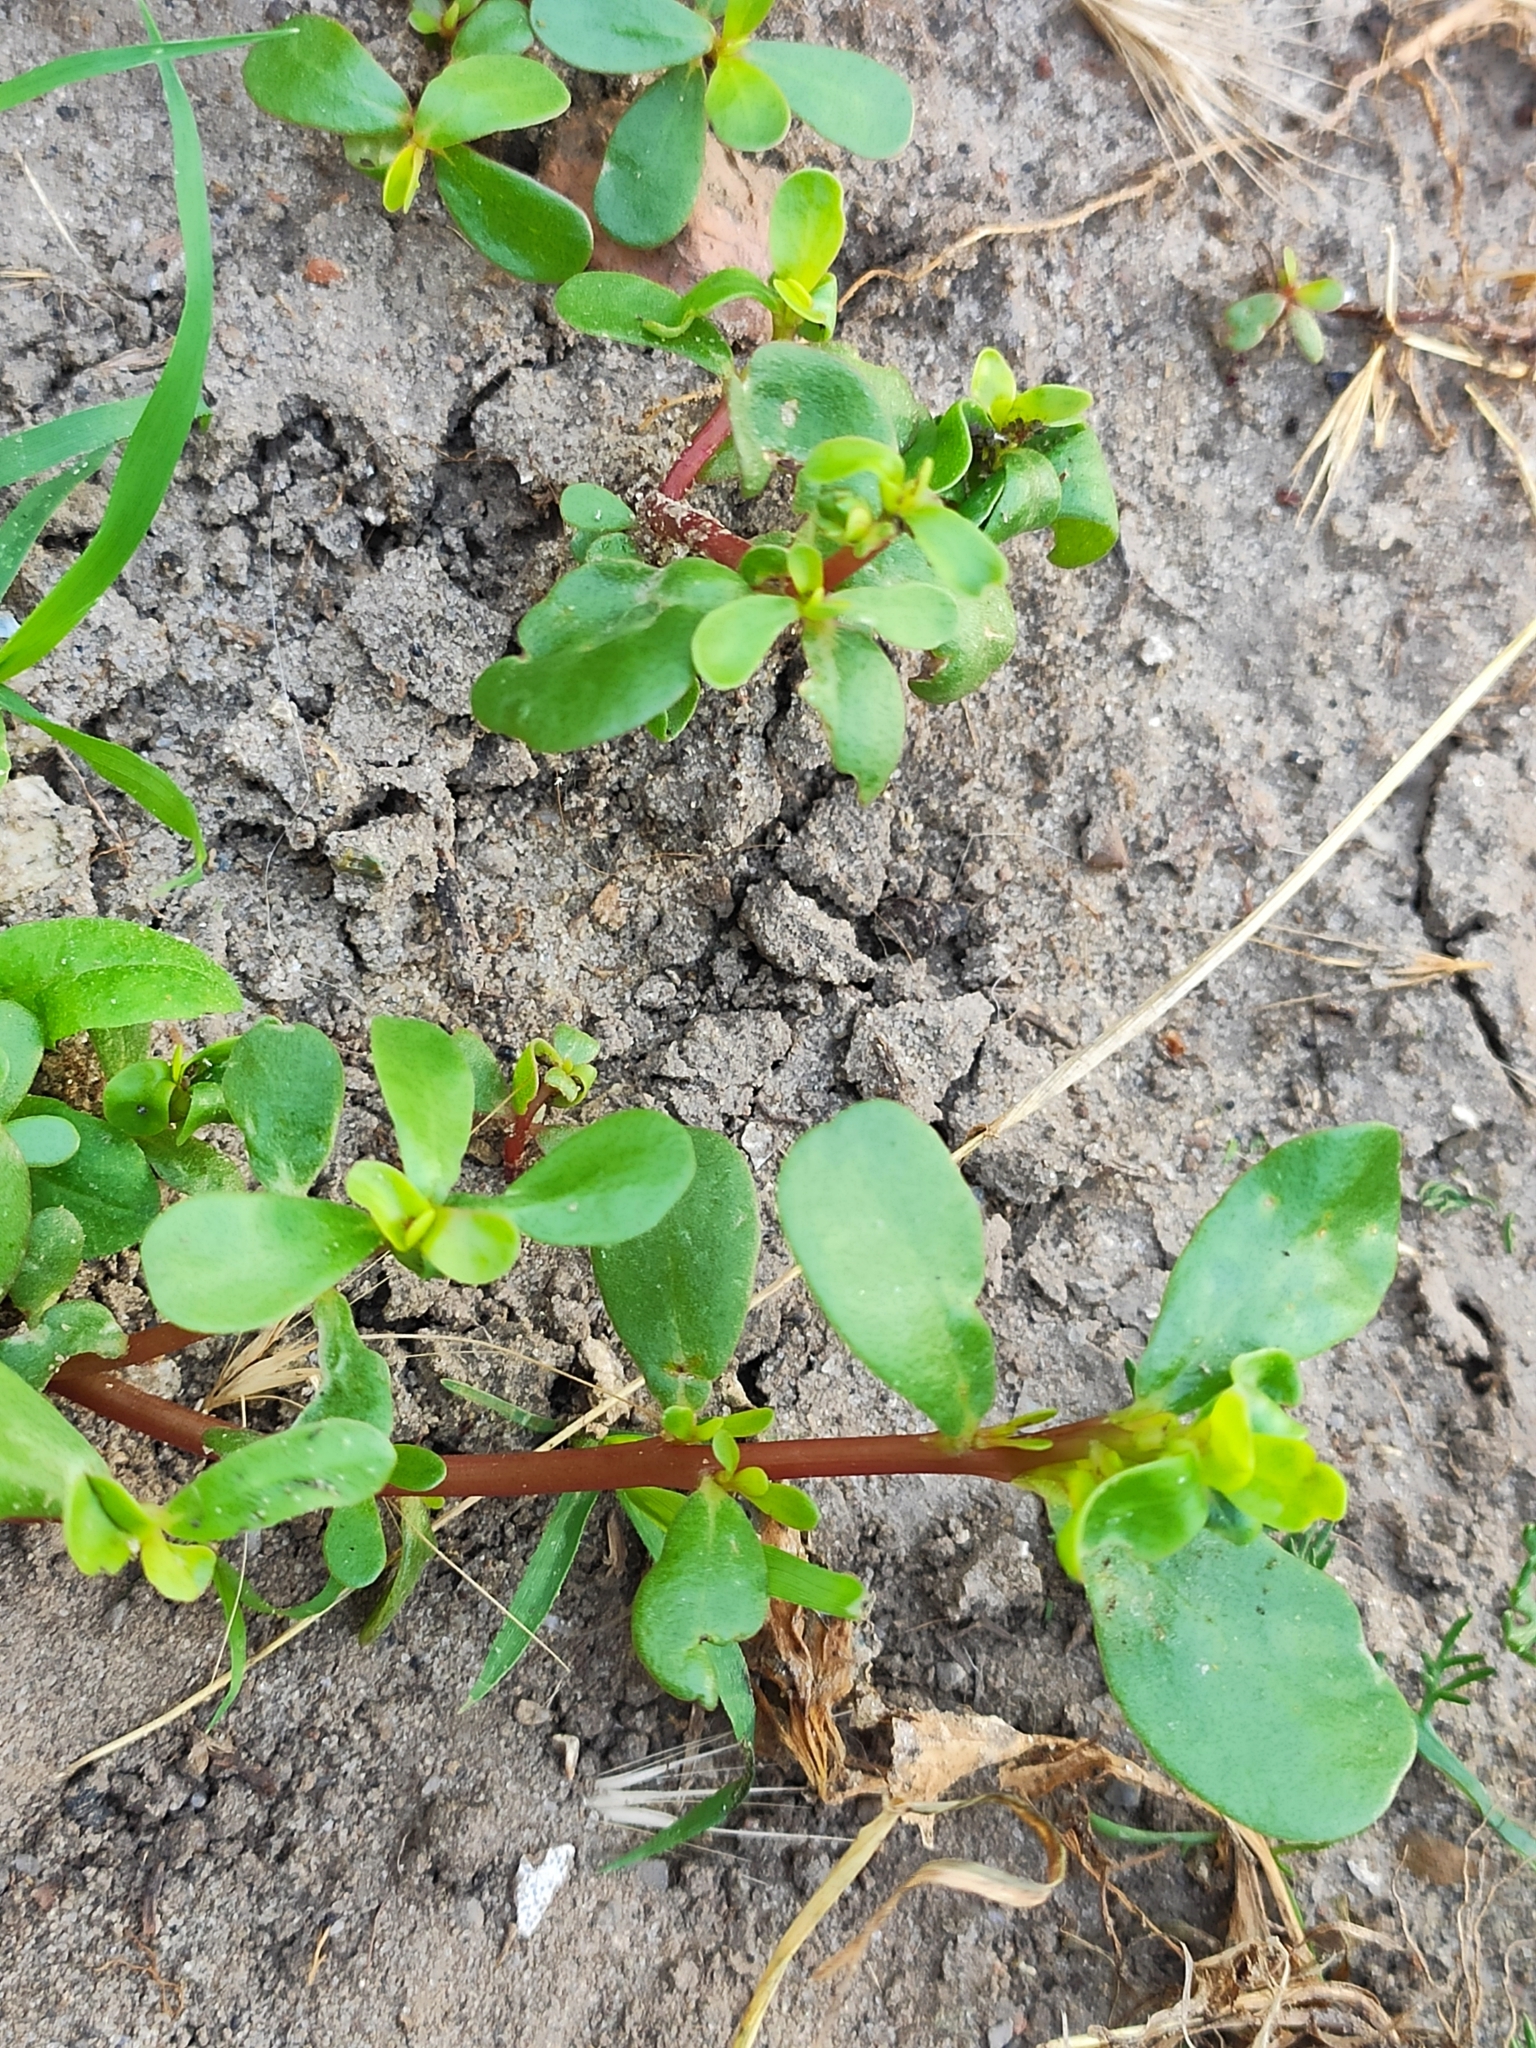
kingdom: Plantae
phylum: Tracheophyta
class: Magnoliopsida
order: Caryophyllales
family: Portulacaceae
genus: Portulaca
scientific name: Portulaca oleracea
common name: Common purslane
